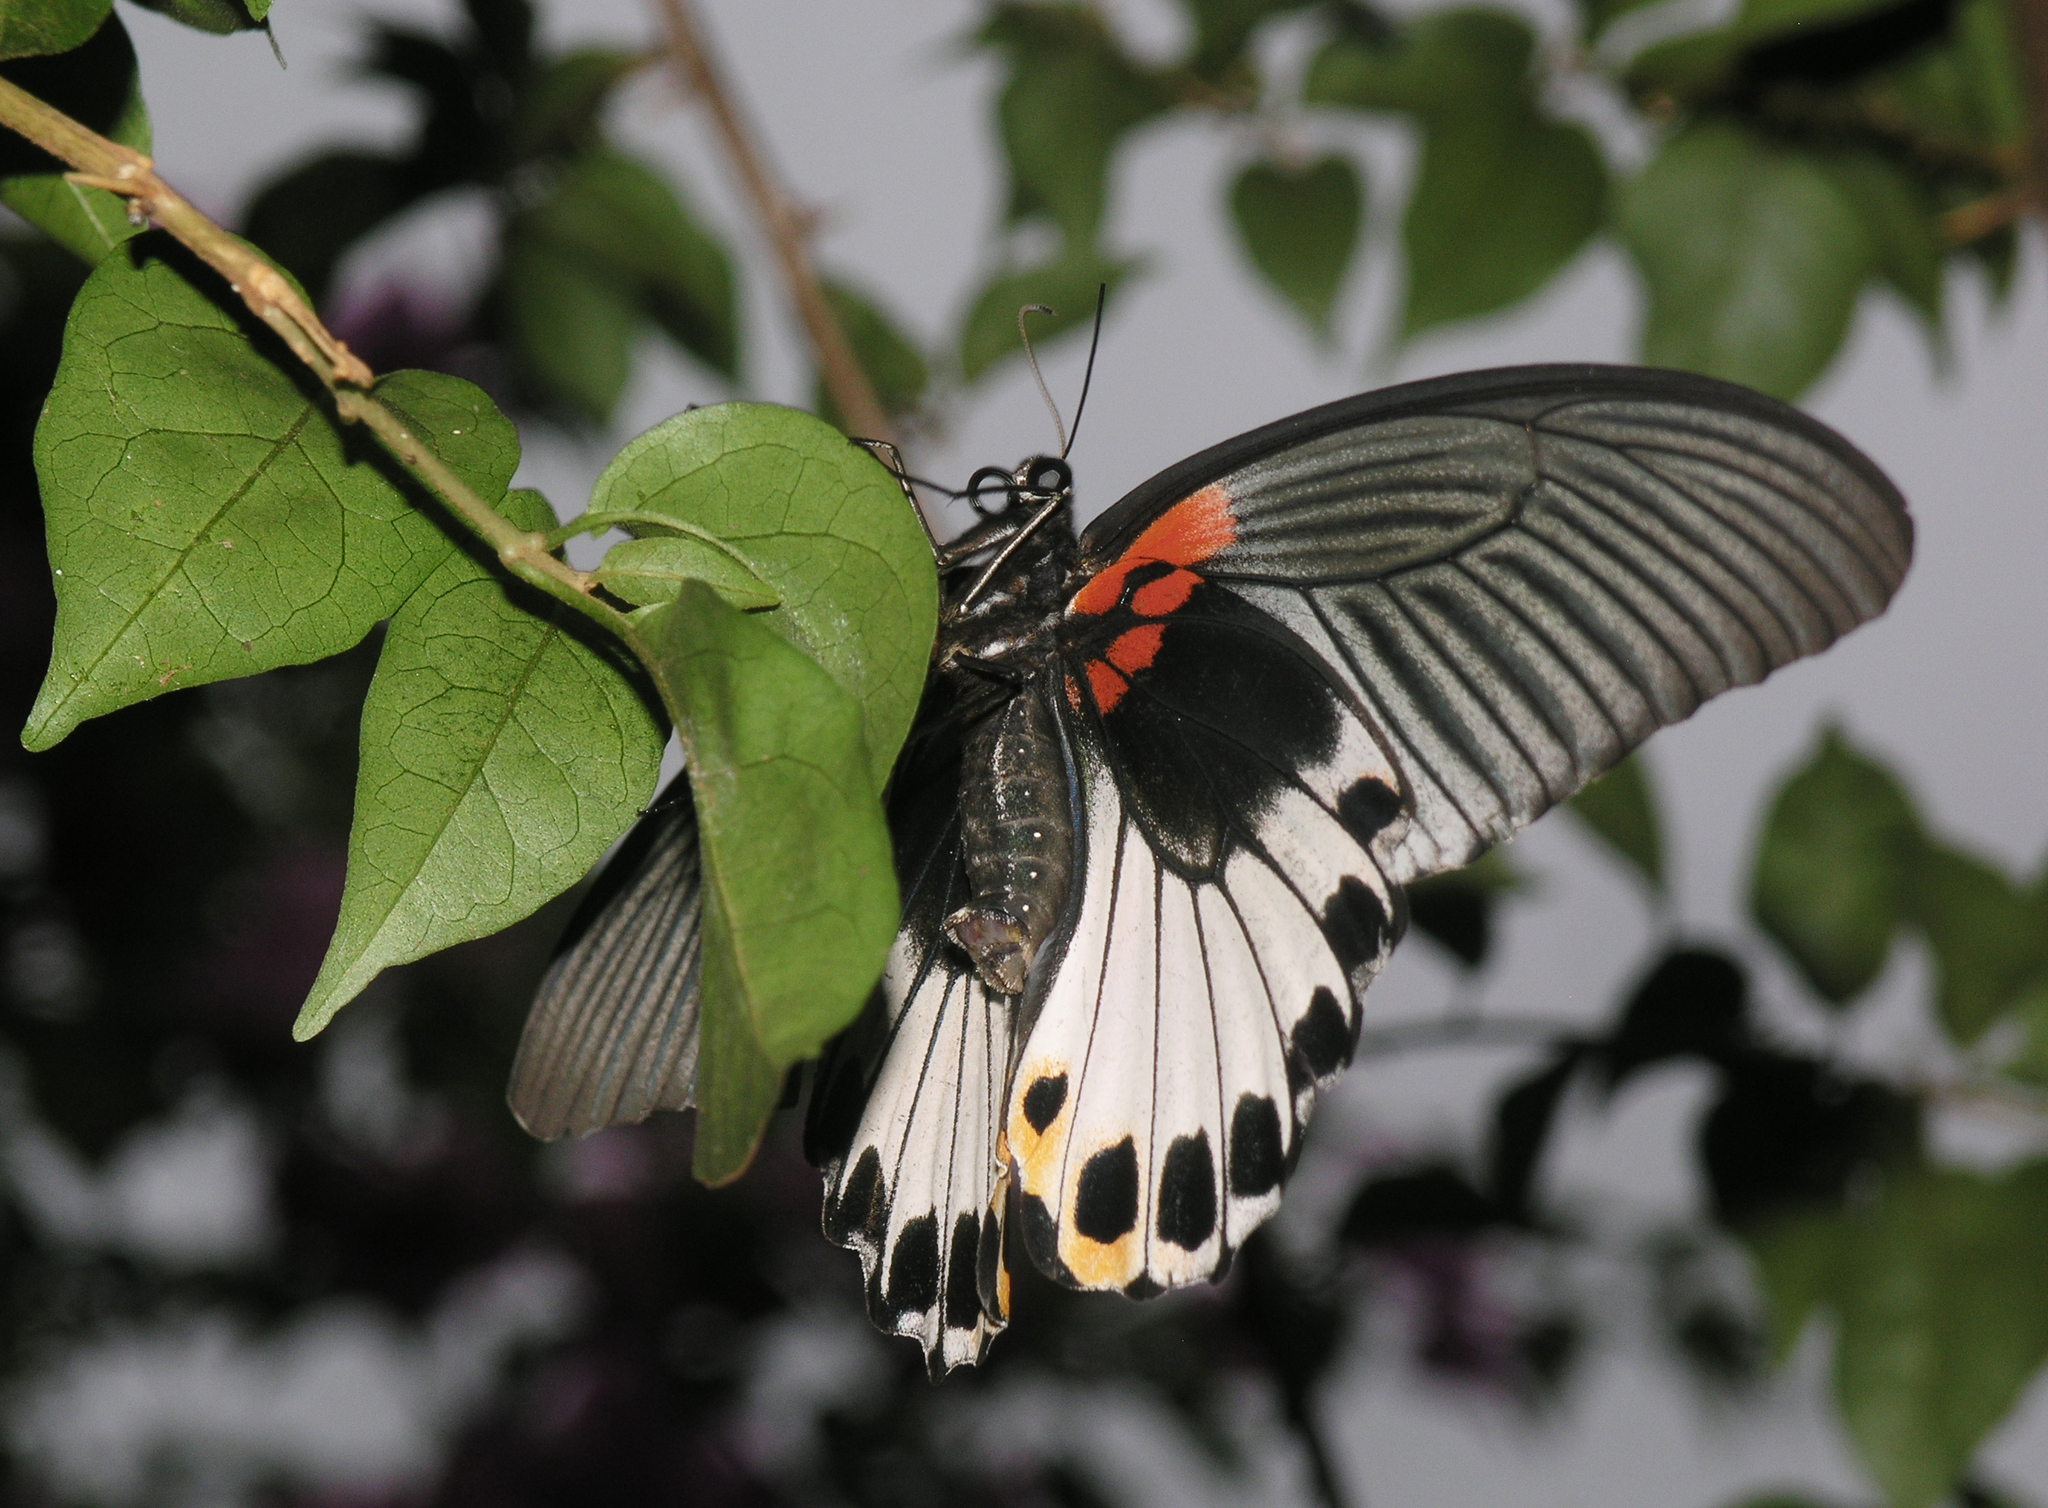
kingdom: Animalia
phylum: Arthropoda
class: Insecta
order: Lepidoptera
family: Papilionidae
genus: Papilio
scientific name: Papilio memnon
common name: Great mormon
